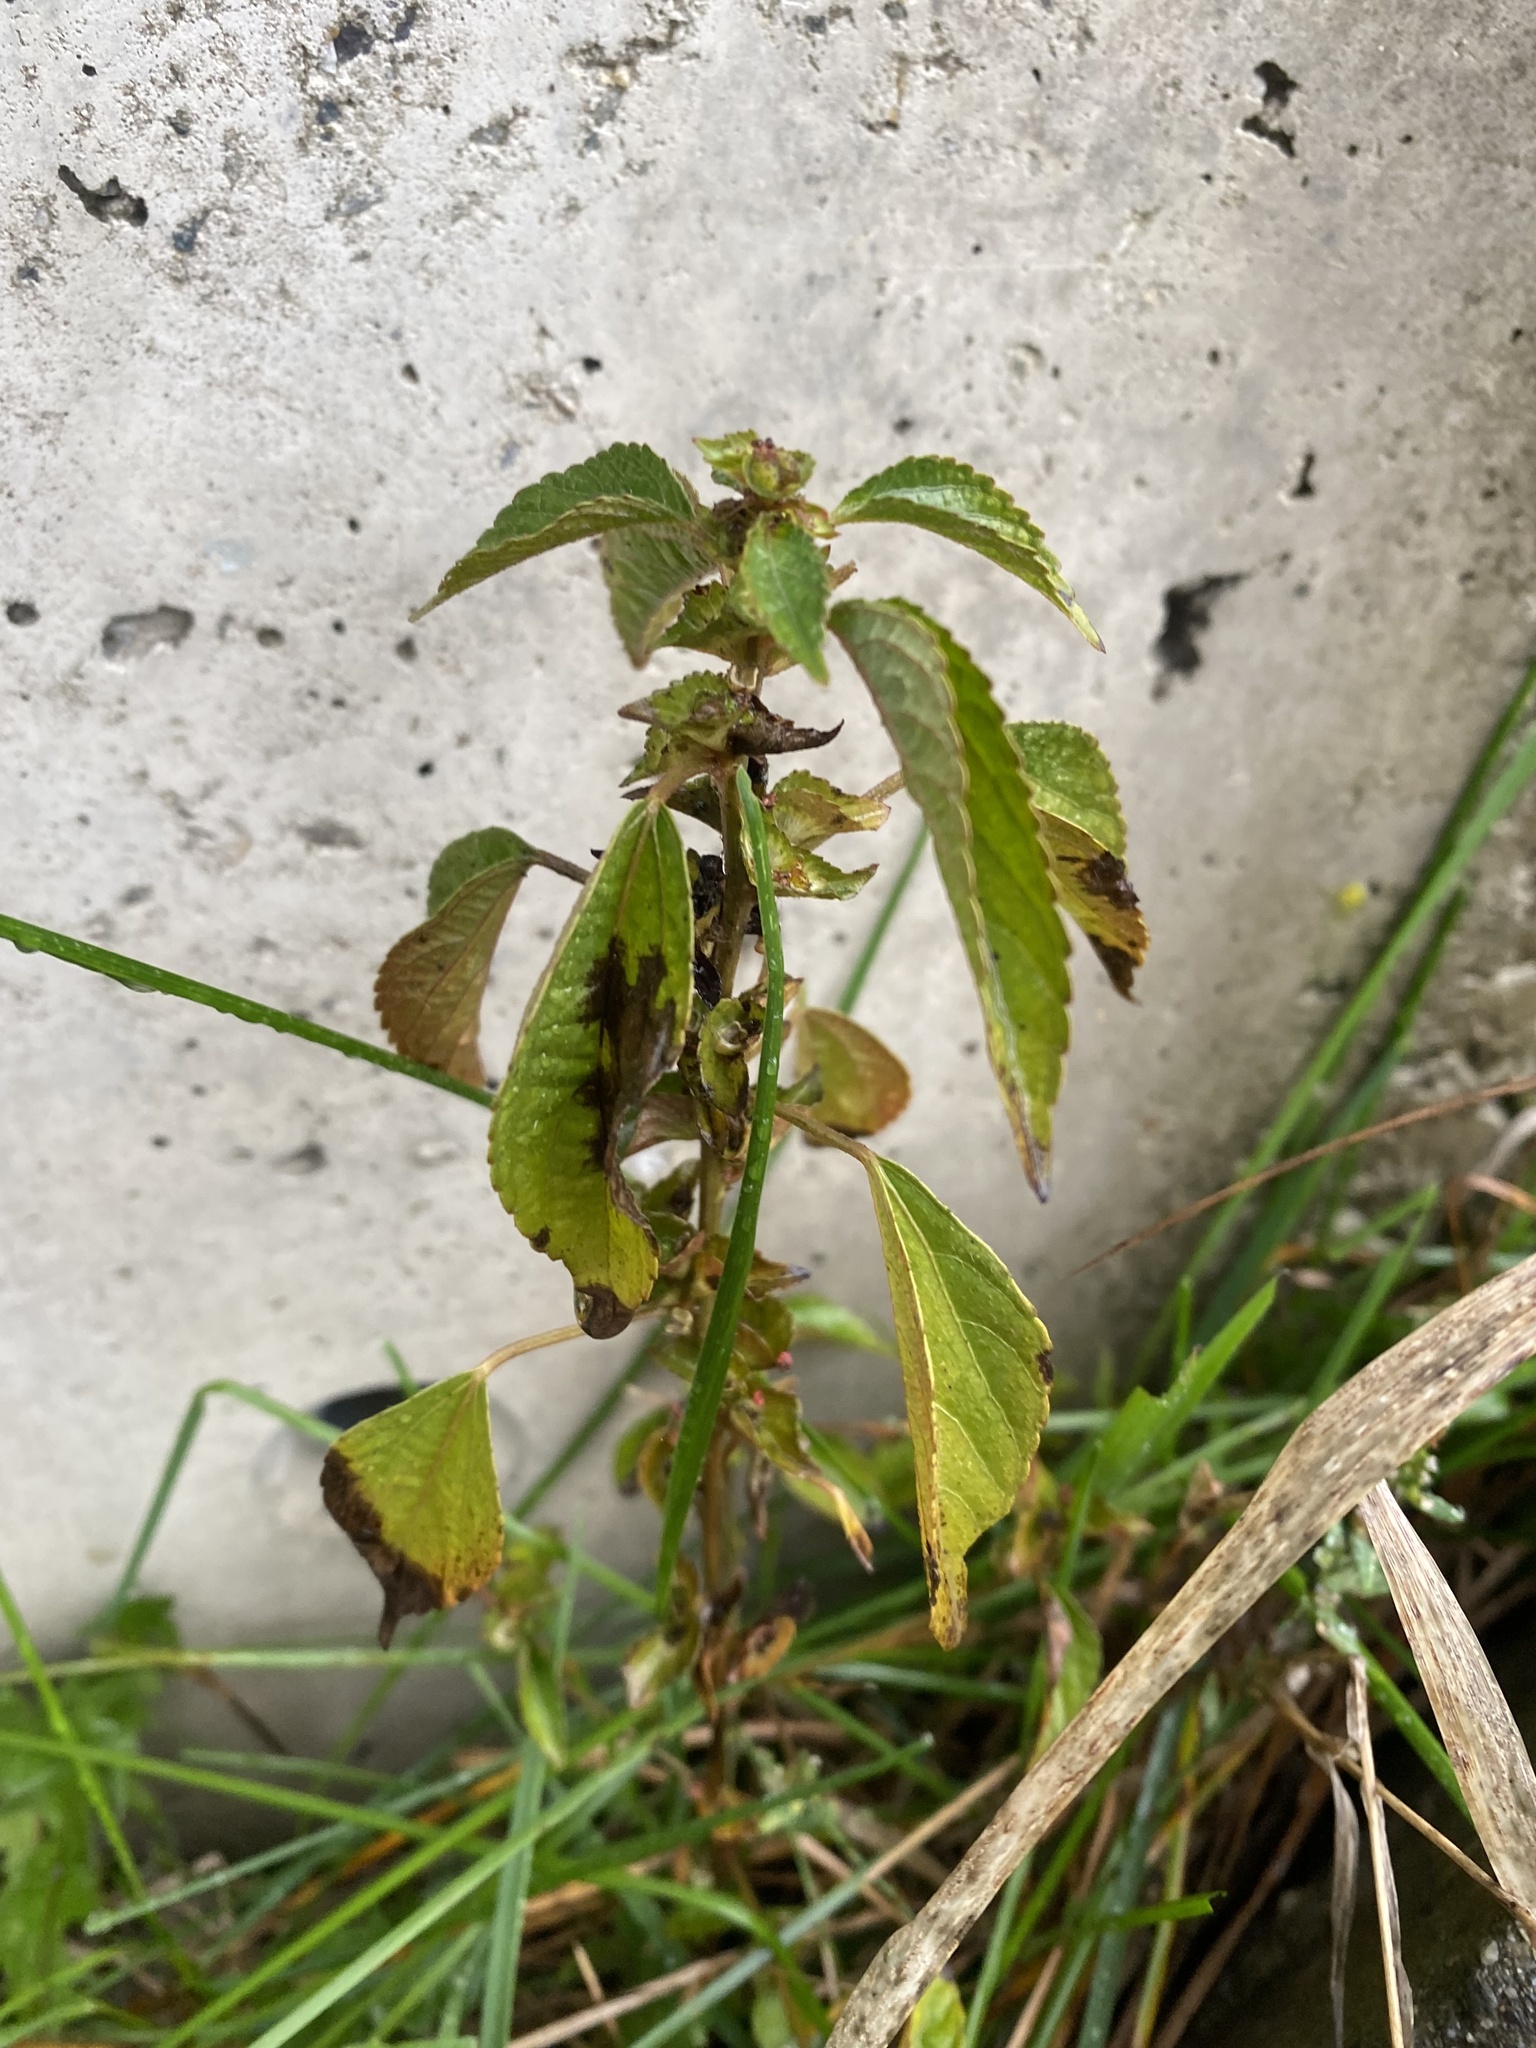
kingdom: Plantae
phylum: Tracheophyta
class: Magnoliopsida
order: Malpighiales
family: Euphorbiaceae
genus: Acalypha
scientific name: Acalypha australis
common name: Asian copperleaf
